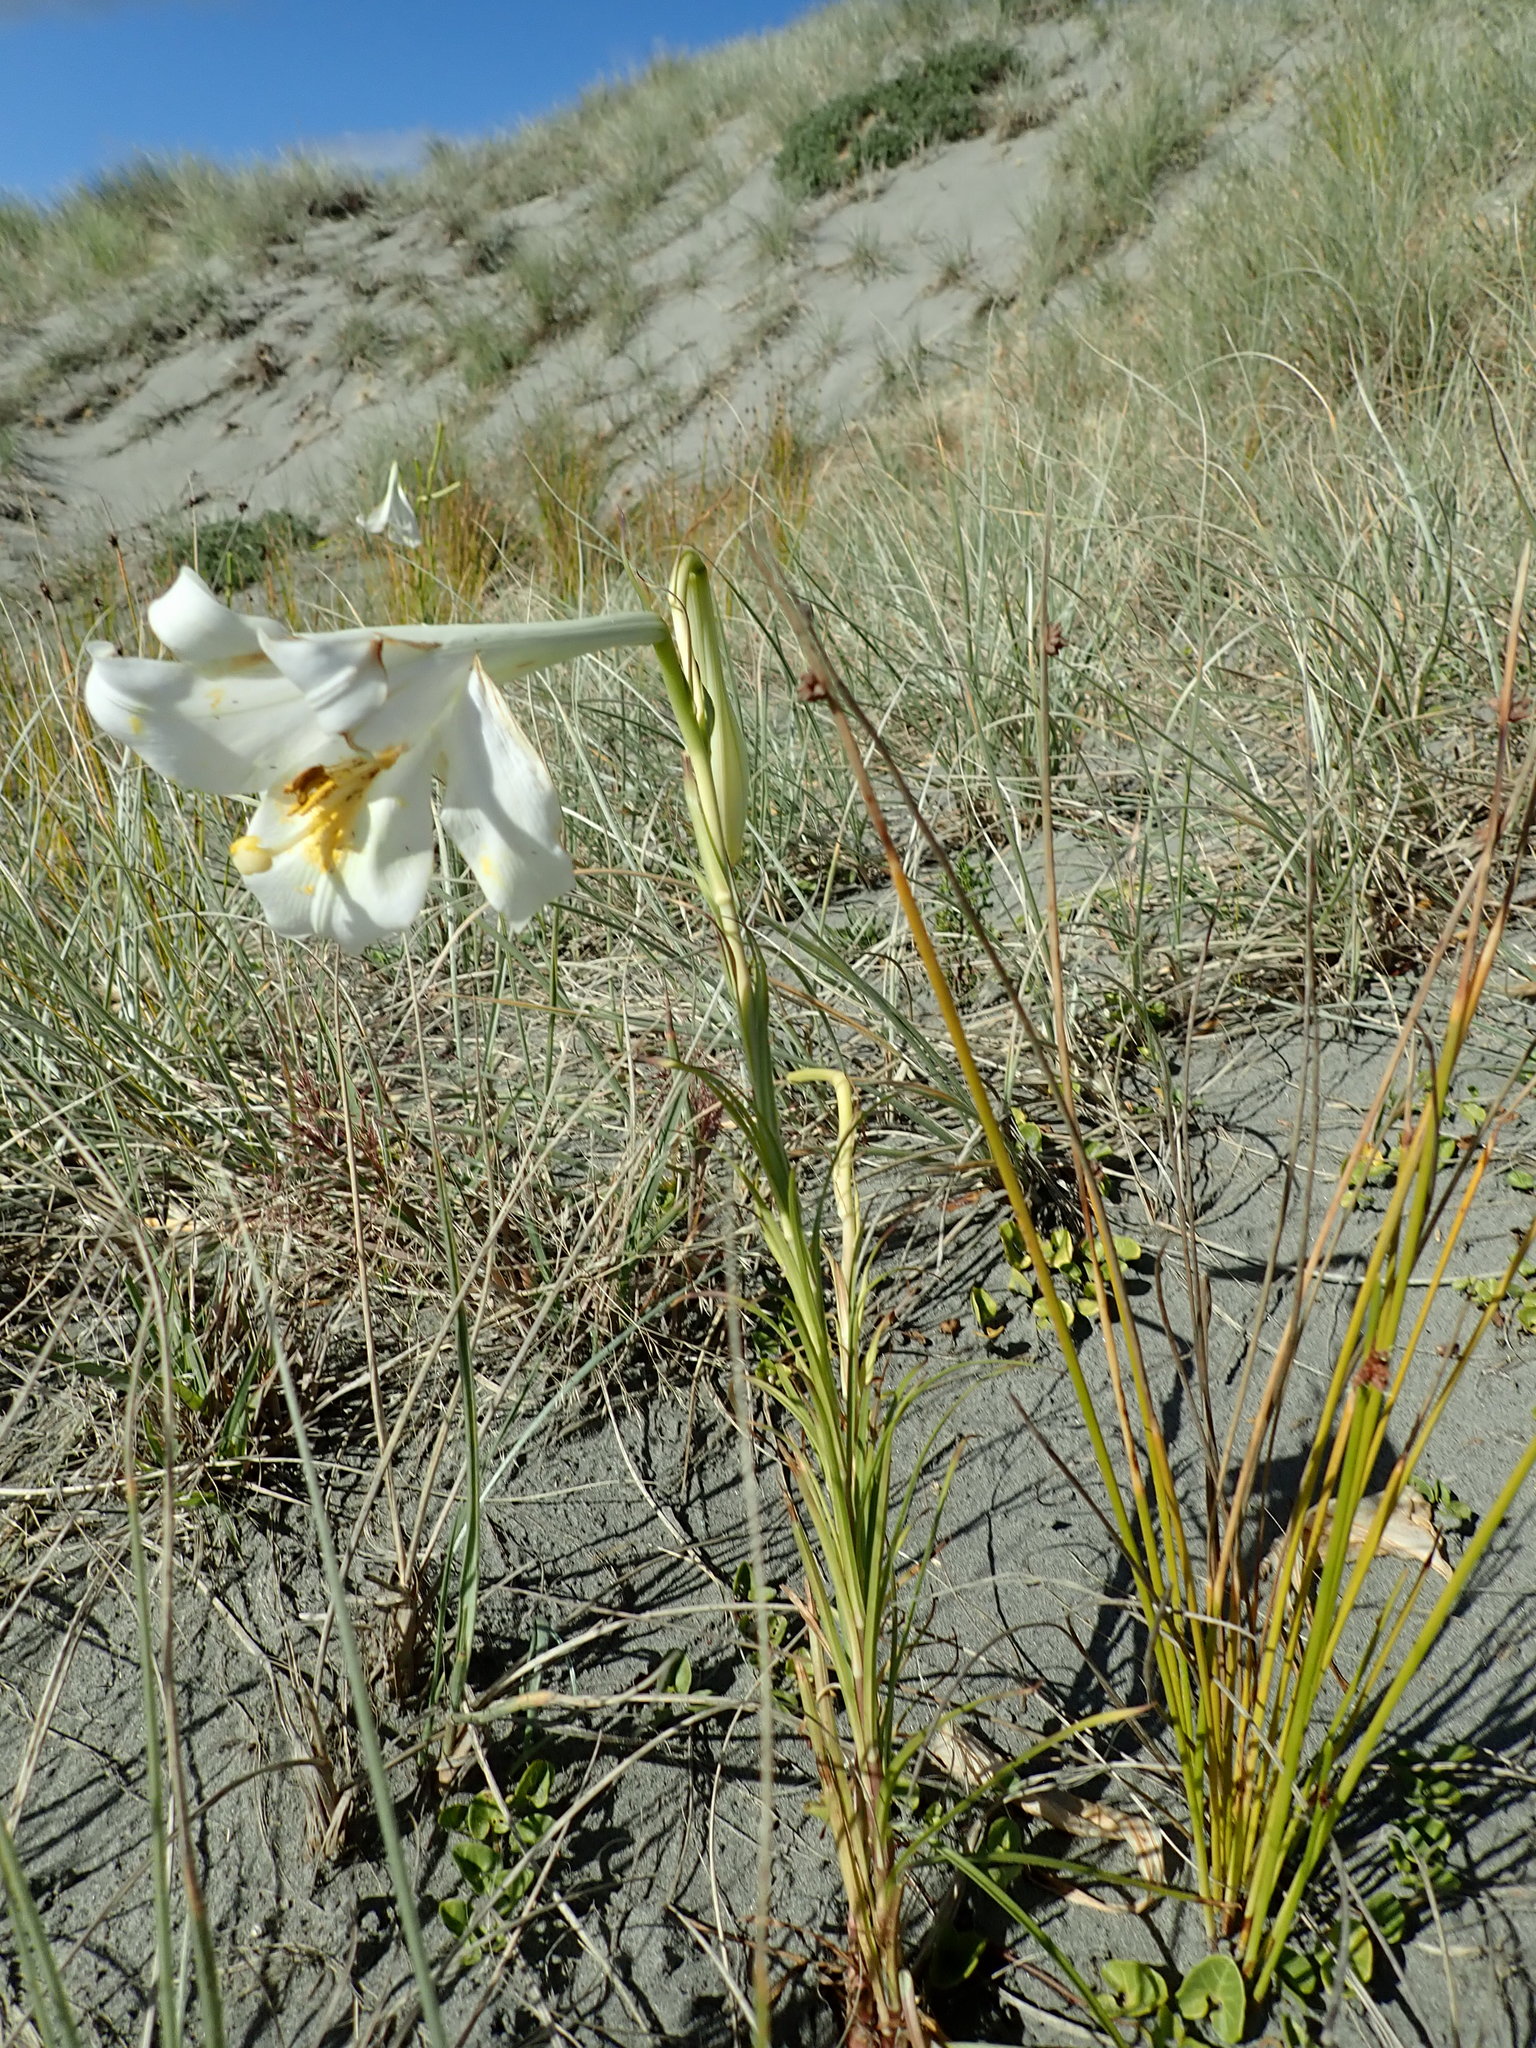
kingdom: Plantae
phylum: Tracheophyta
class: Liliopsida
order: Liliales
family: Liliaceae
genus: Lilium
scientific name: Lilium formosanum
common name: Formosa lily
